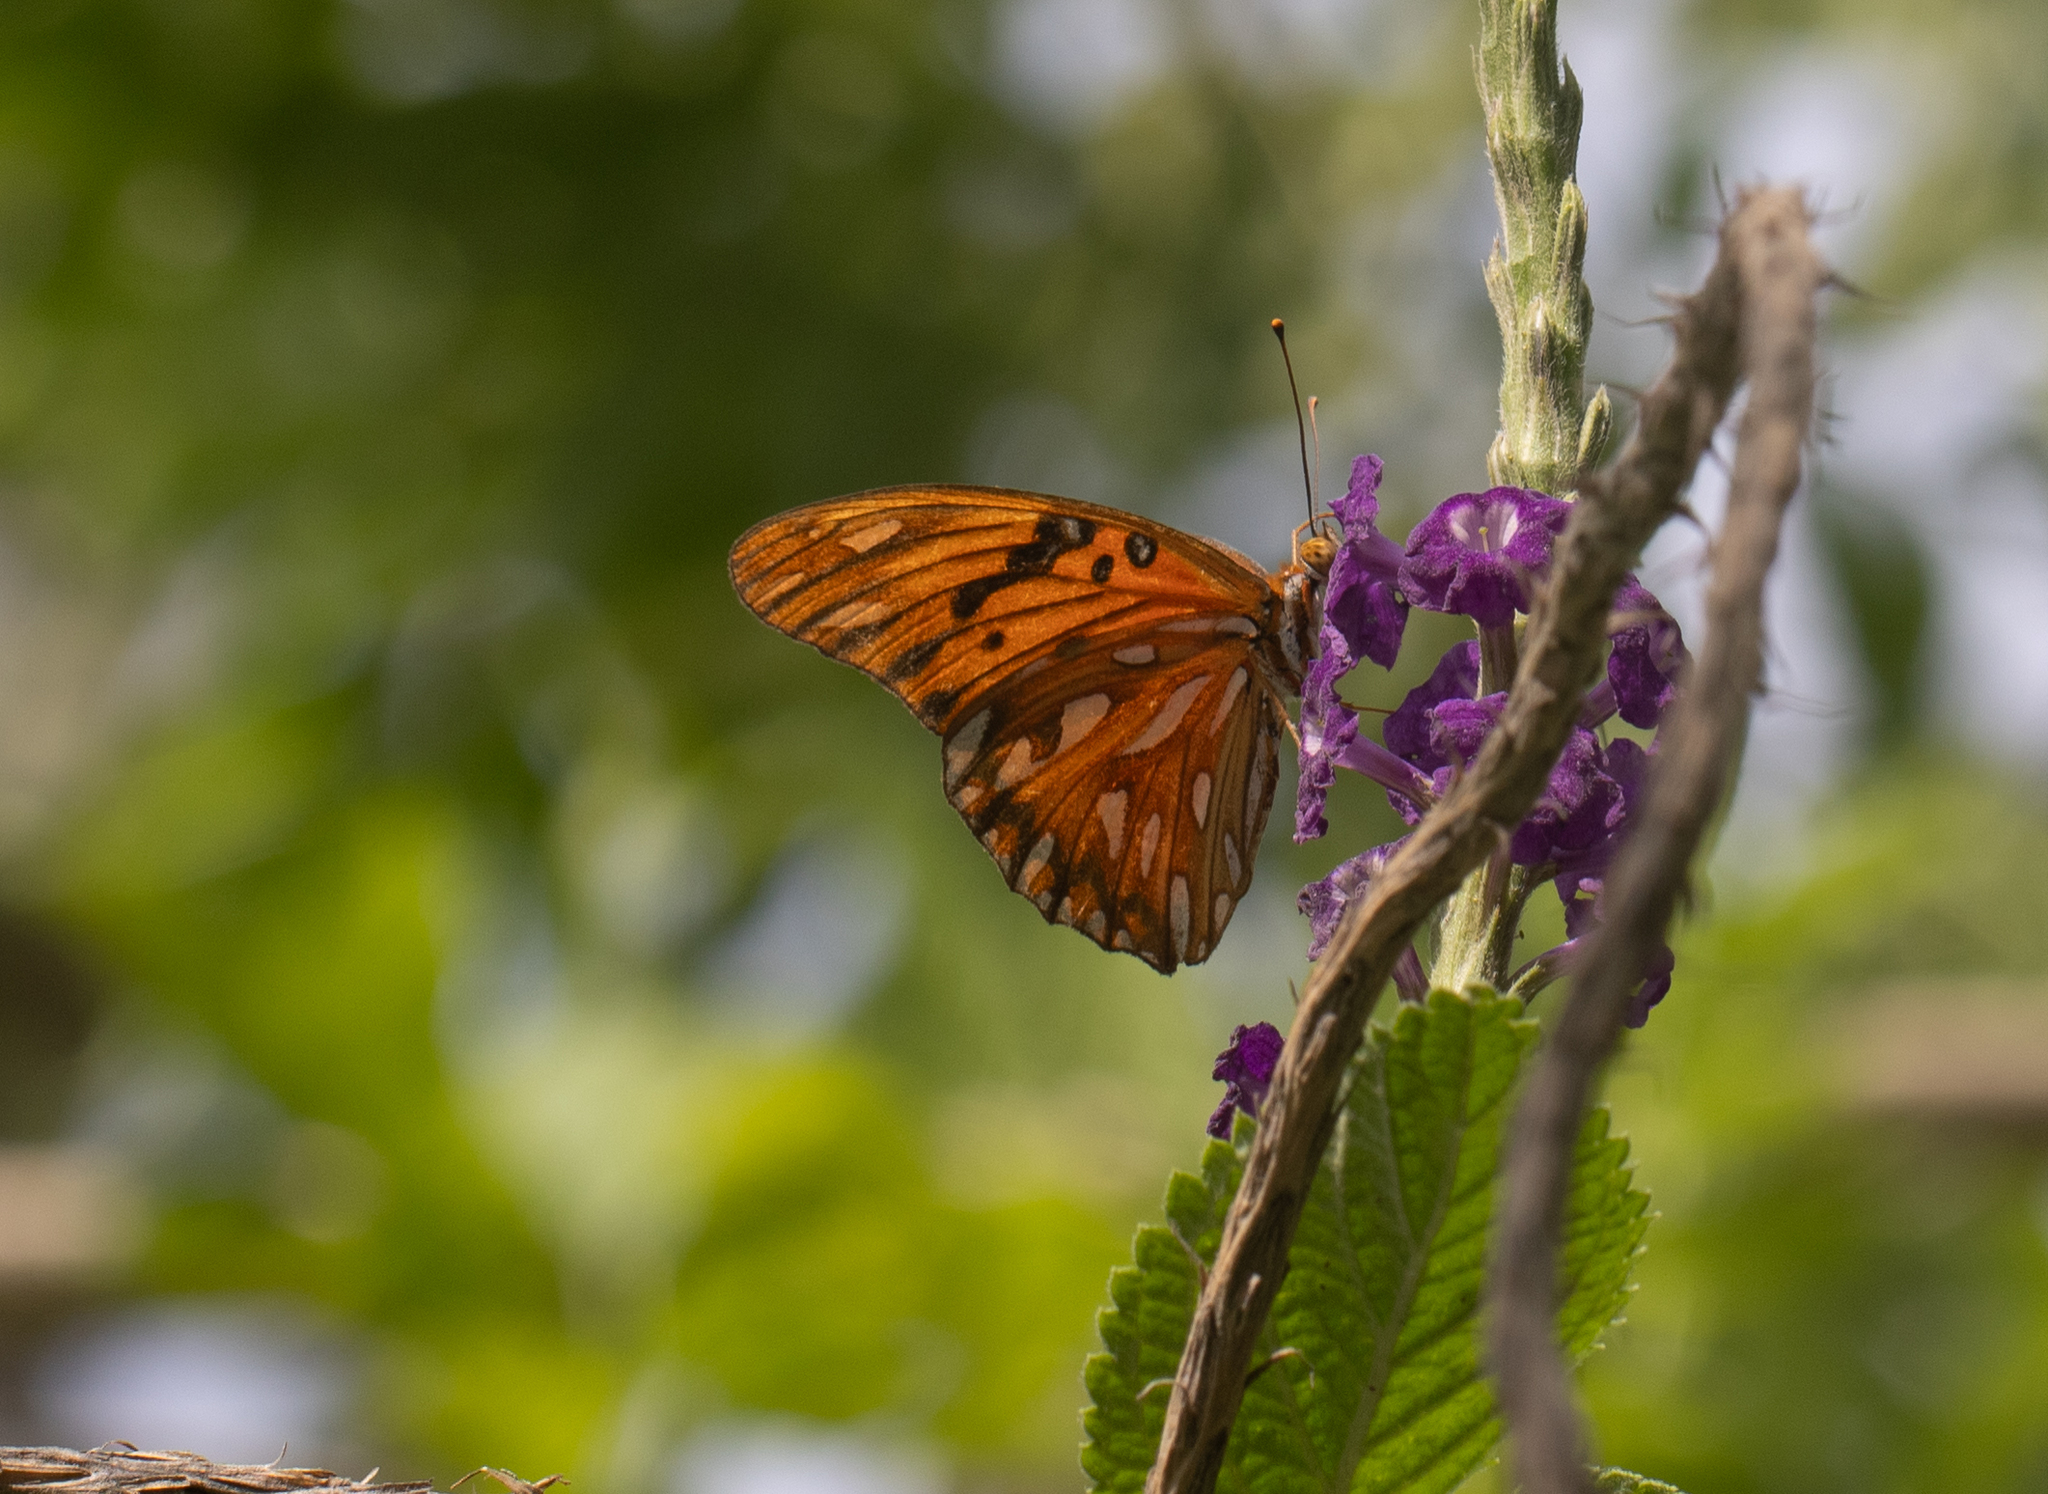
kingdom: Animalia
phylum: Arthropoda
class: Insecta
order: Lepidoptera
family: Nymphalidae
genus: Dione
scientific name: Dione vanillae
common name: Gulf fritillary
